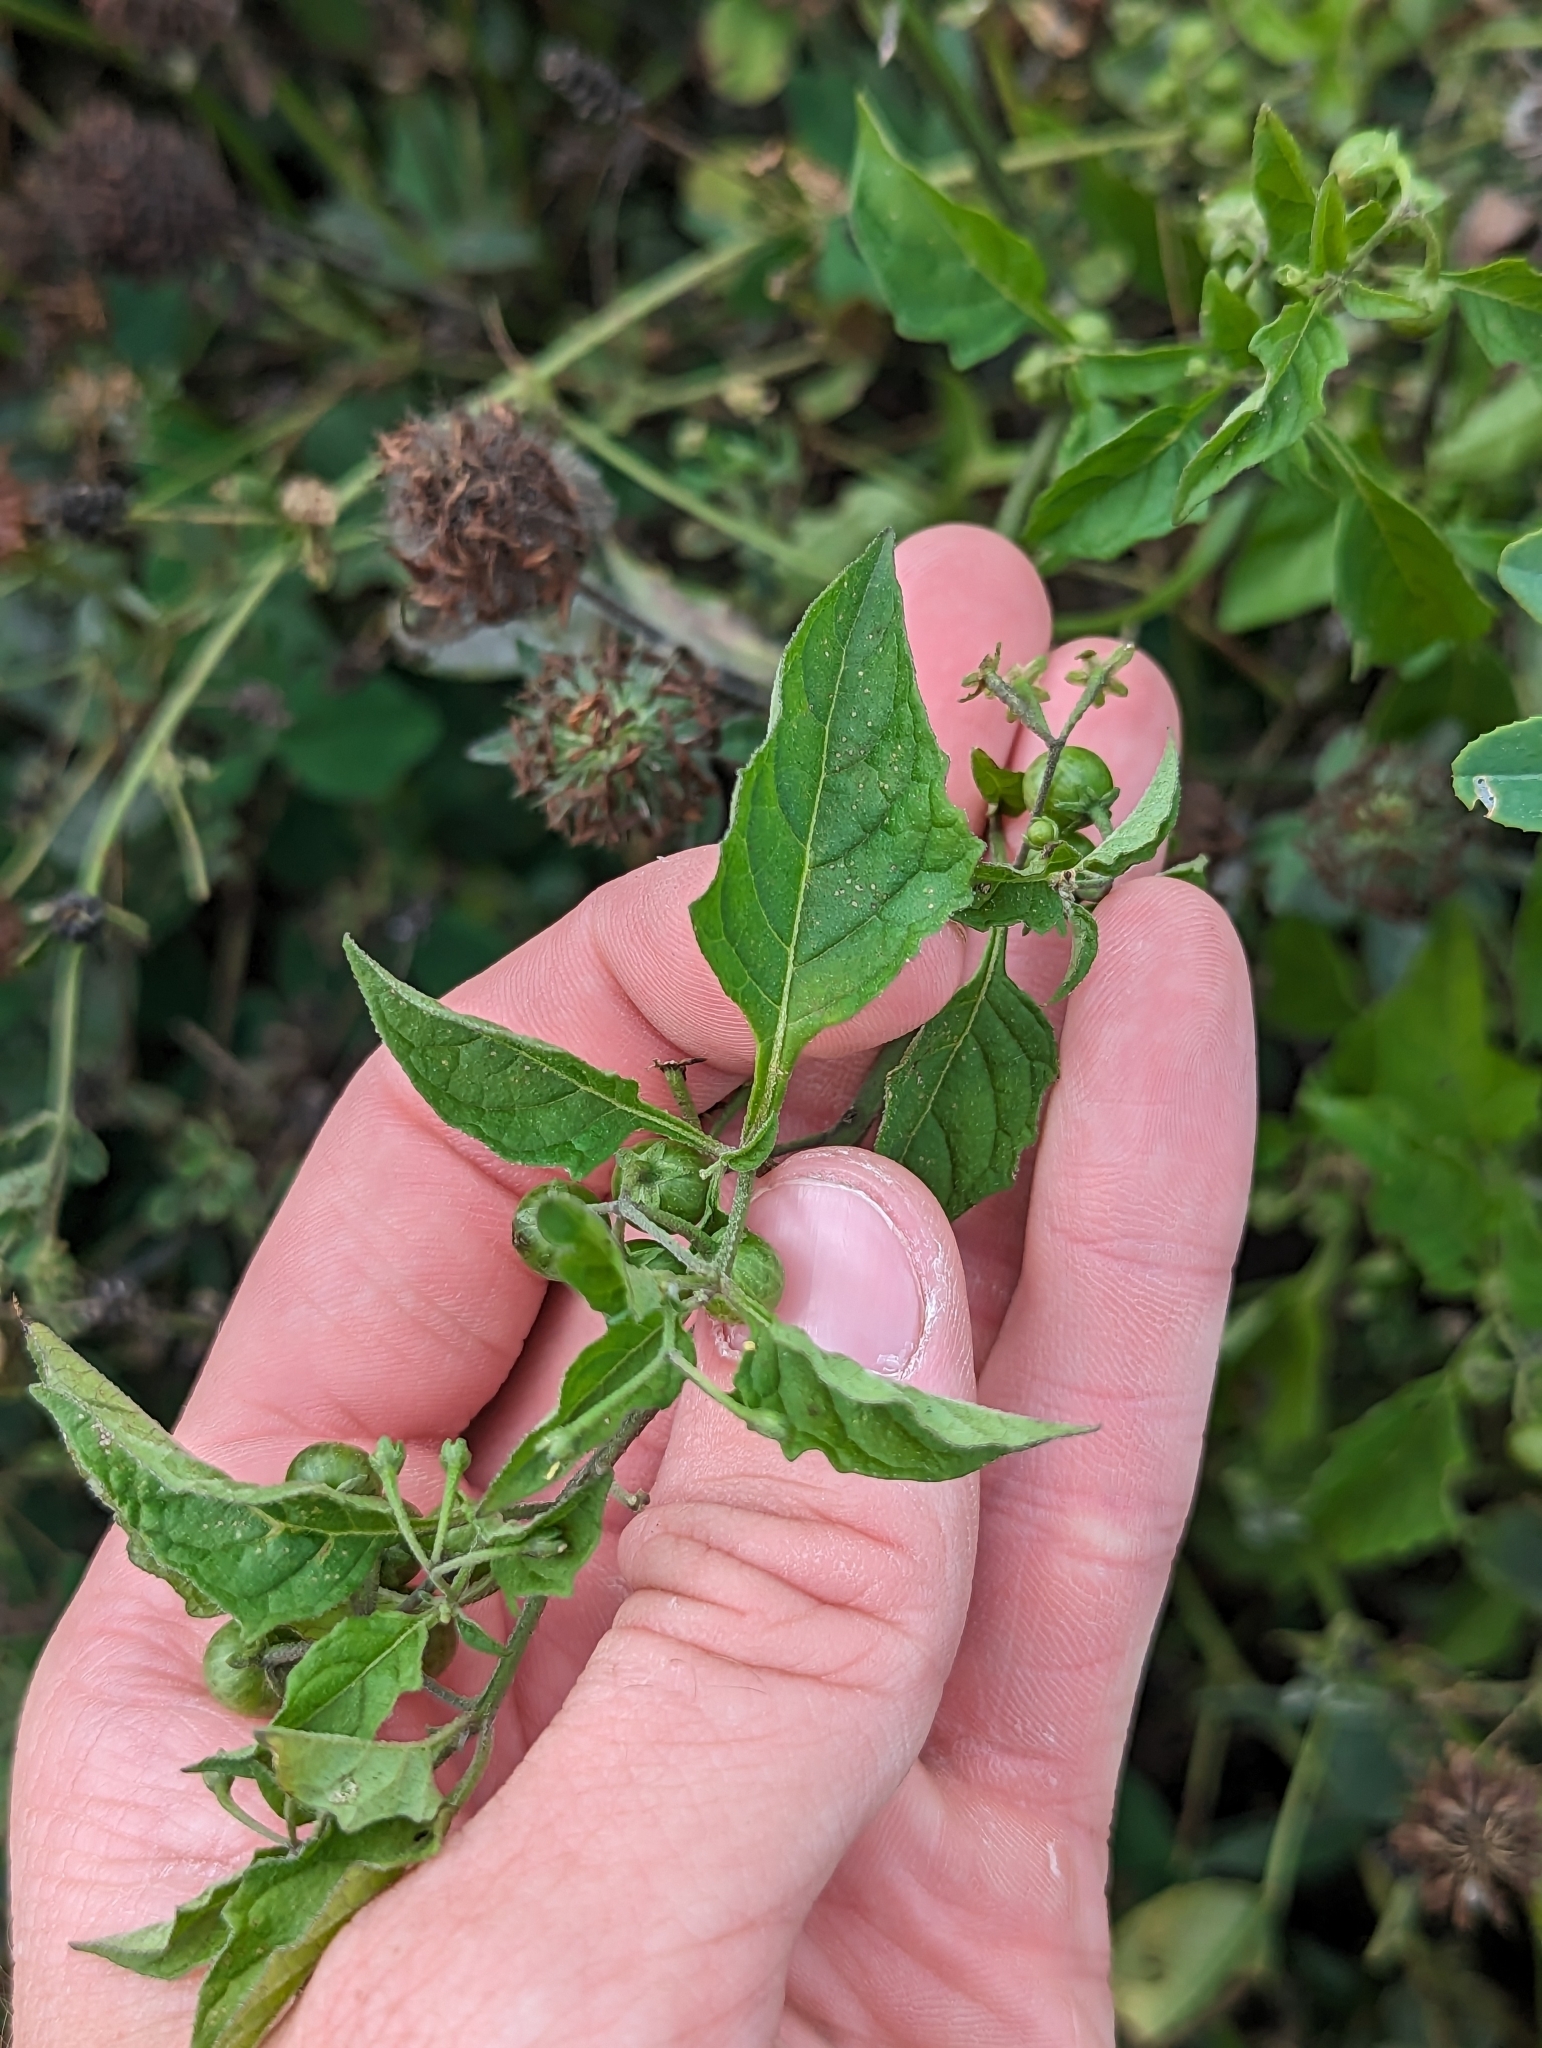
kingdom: Plantae
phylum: Tracheophyta
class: Magnoliopsida
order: Solanales
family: Solanaceae
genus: Solanum
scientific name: Solanum emulans
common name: Eastern black nightshade
